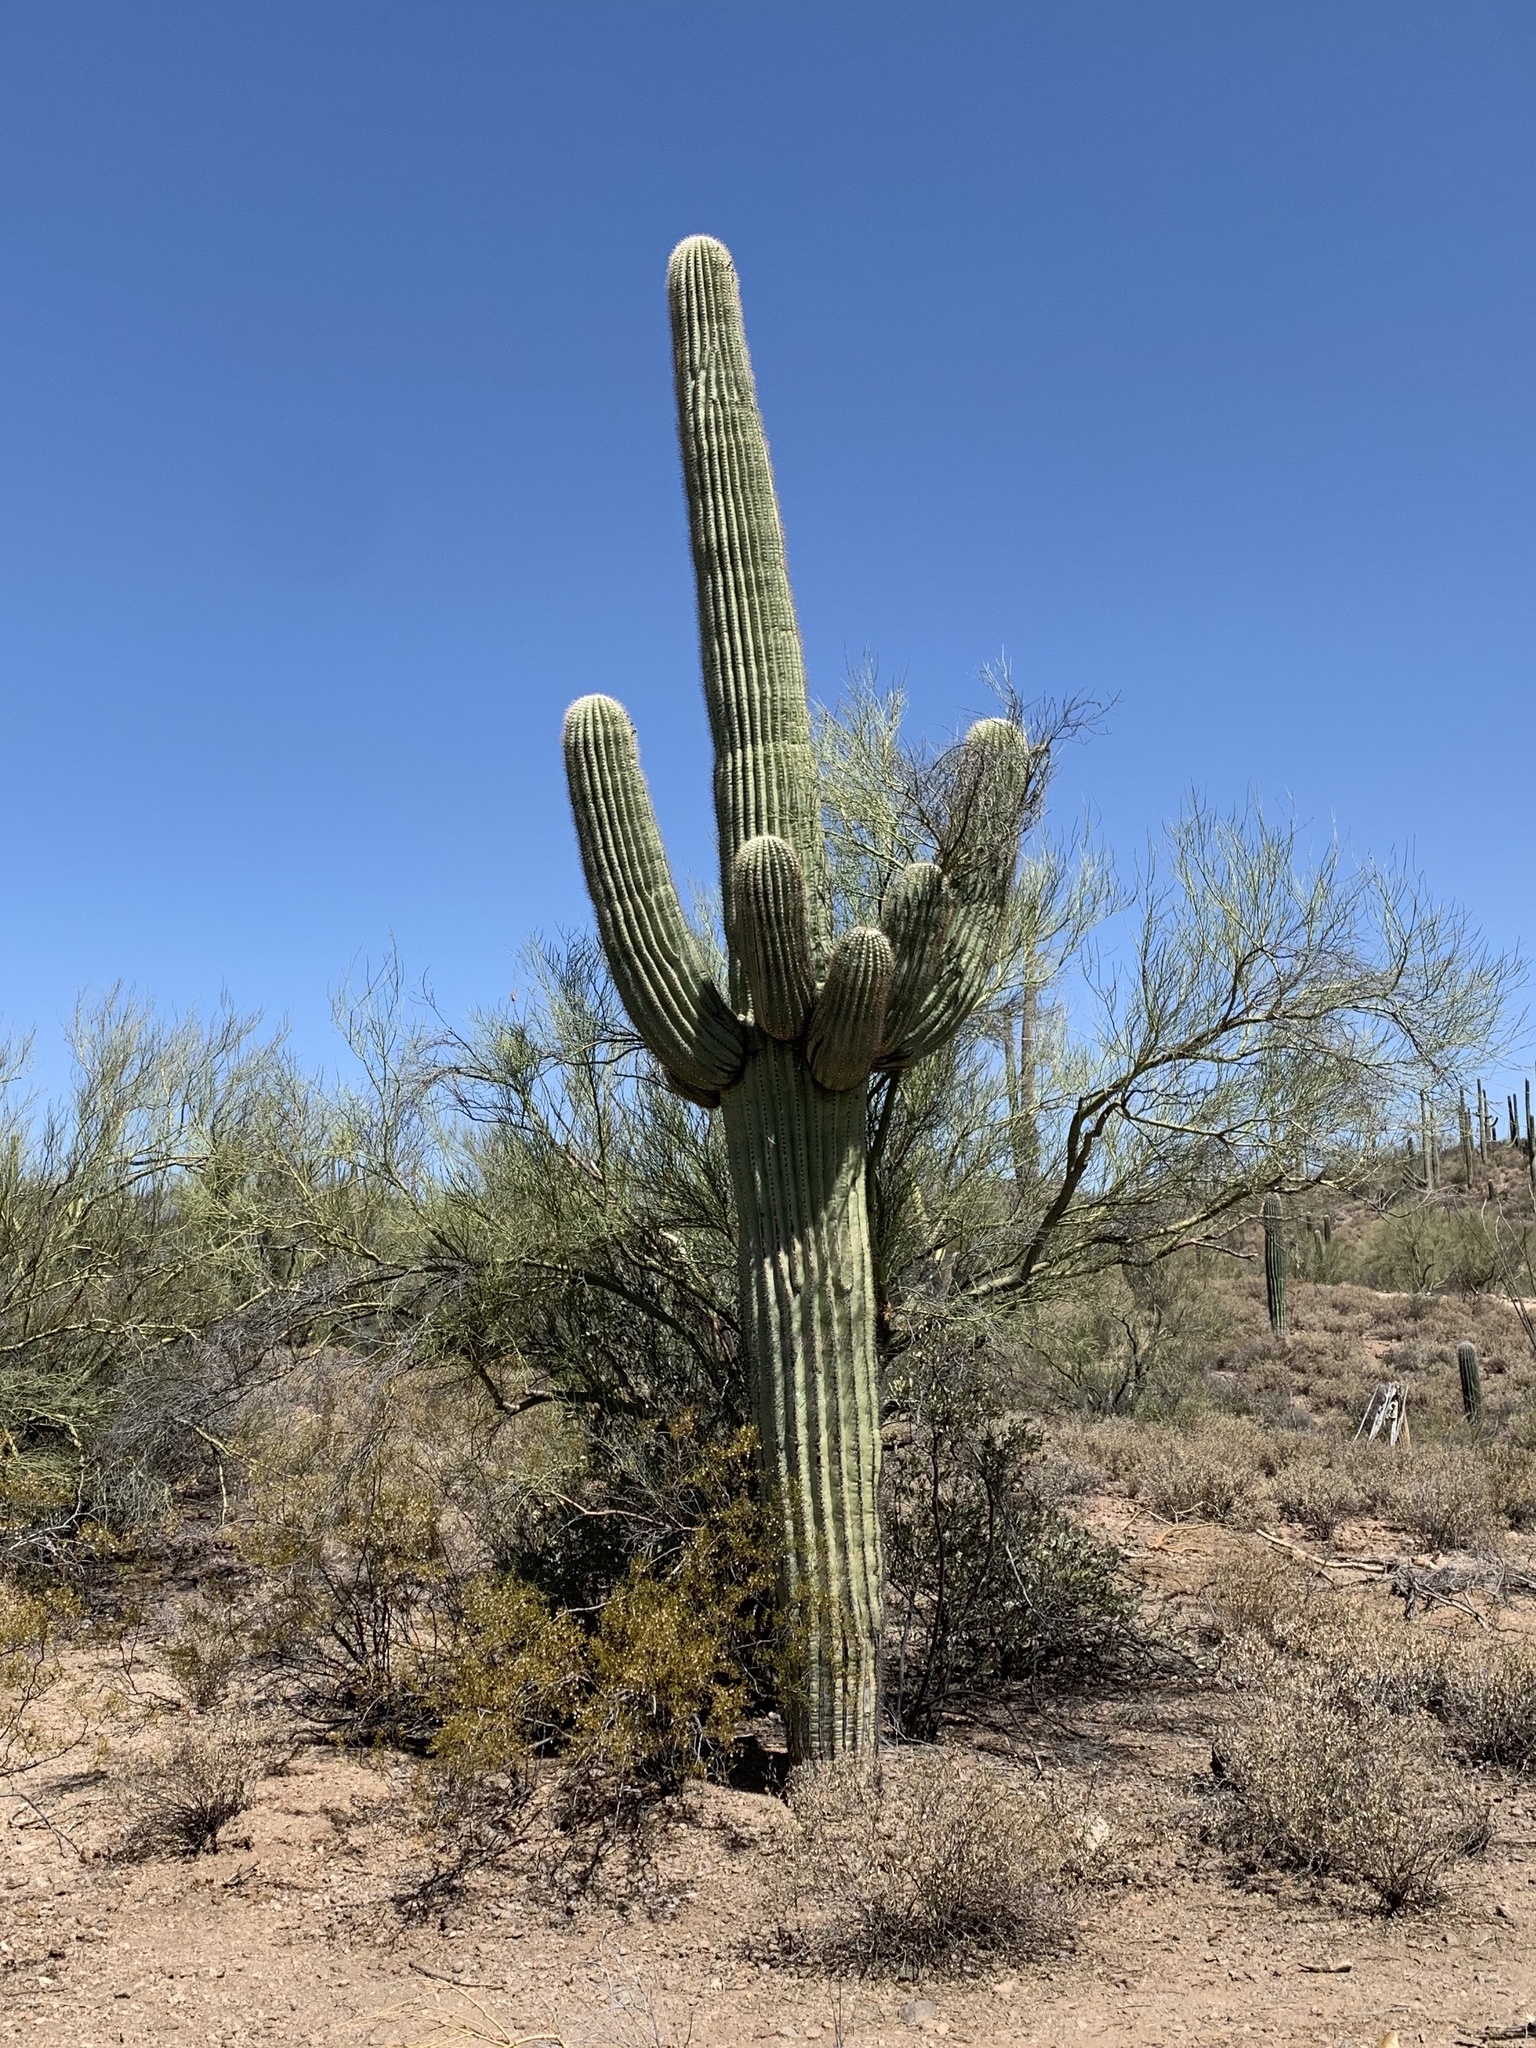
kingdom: Plantae
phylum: Tracheophyta
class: Magnoliopsida
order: Caryophyllales
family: Cactaceae
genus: Carnegiea
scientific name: Carnegiea gigantea
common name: Saguaro
